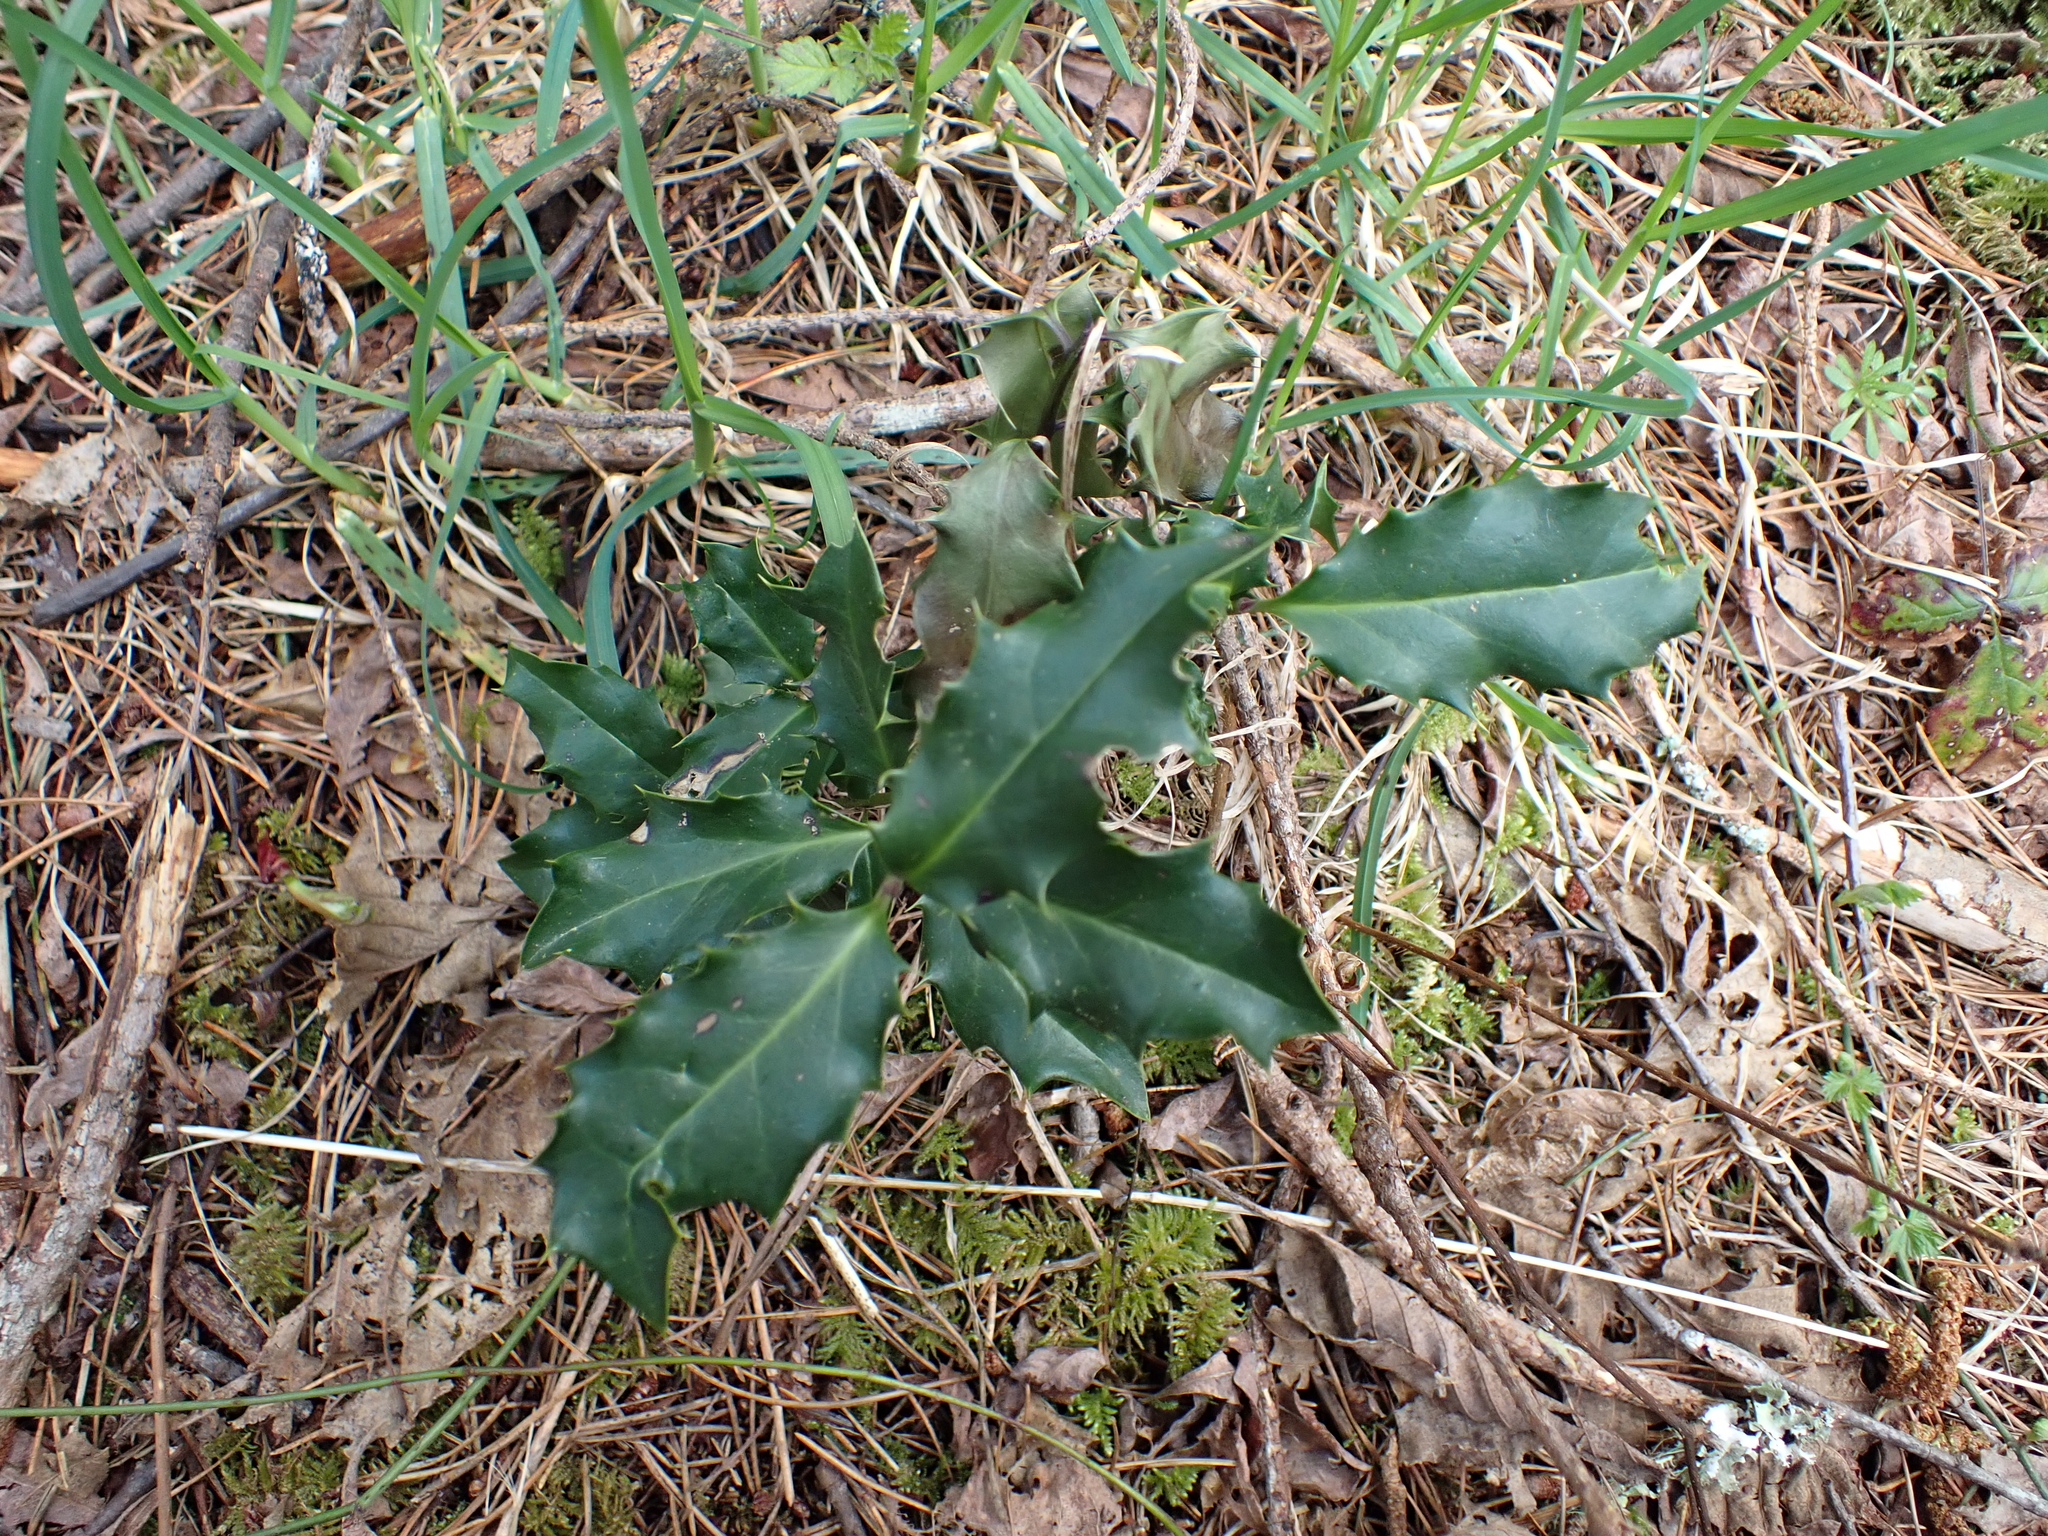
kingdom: Plantae
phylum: Tracheophyta
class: Magnoliopsida
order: Aquifoliales
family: Aquifoliaceae
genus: Ilex
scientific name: Ilex aquifolium
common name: English holly
